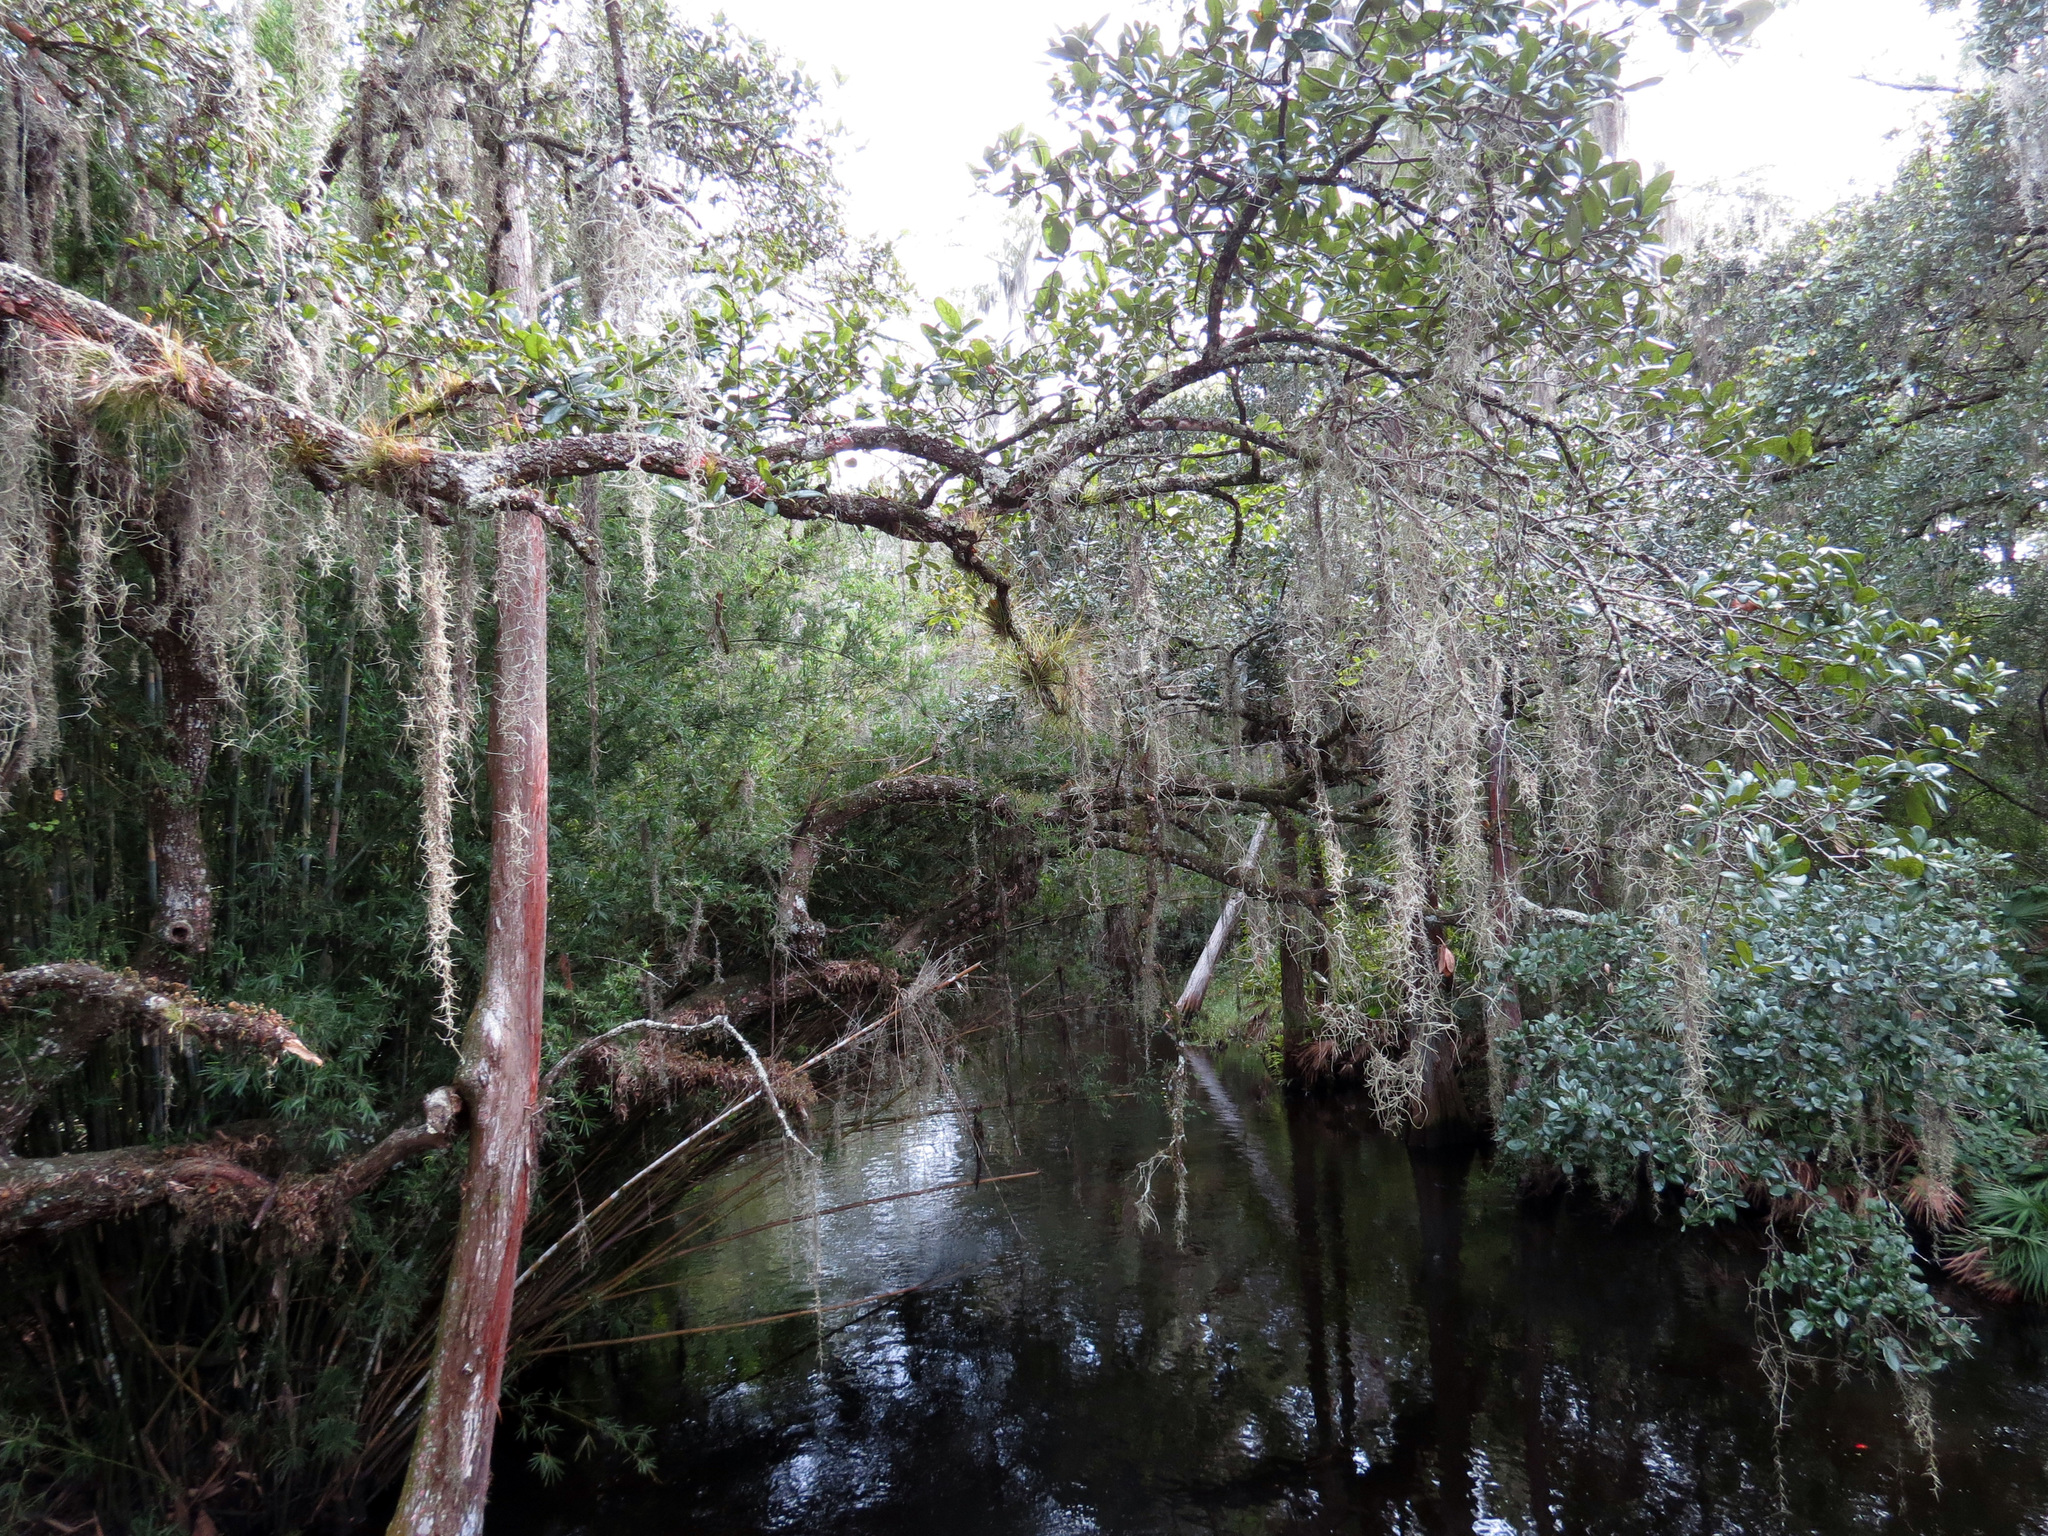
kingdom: Plantae
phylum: Tracheophyta
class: Liliopsida
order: Poales
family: Bromeliaceae
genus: Tillandsia
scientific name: Tillandsia usneoides
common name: Spanish moss
